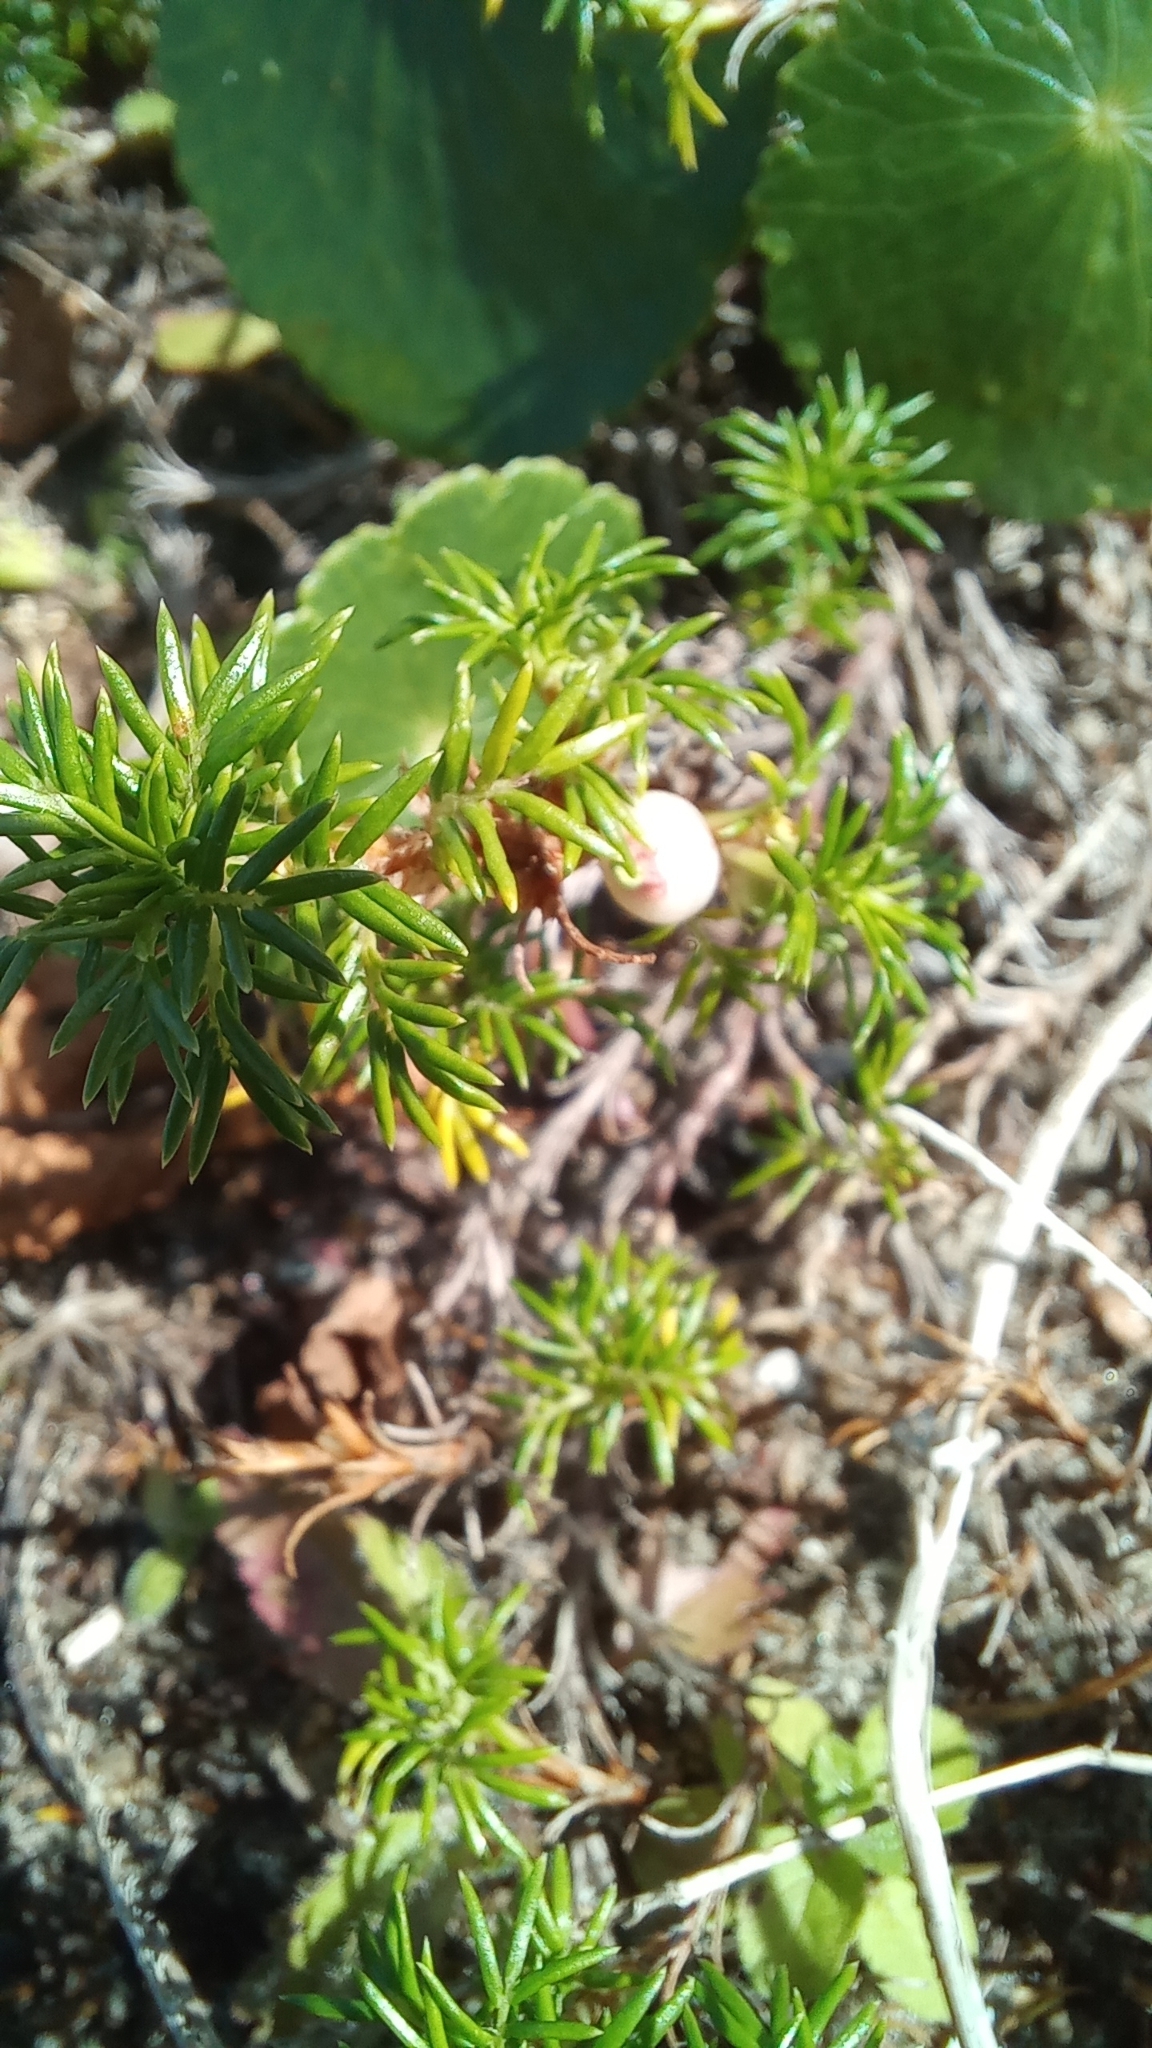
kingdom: Plantae
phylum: Tracheophyta
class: Magnoliopsida
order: Rosales
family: Rosaceae
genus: Margyricarpus
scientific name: Margyricarpus pinnatus
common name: Pearlfruit
